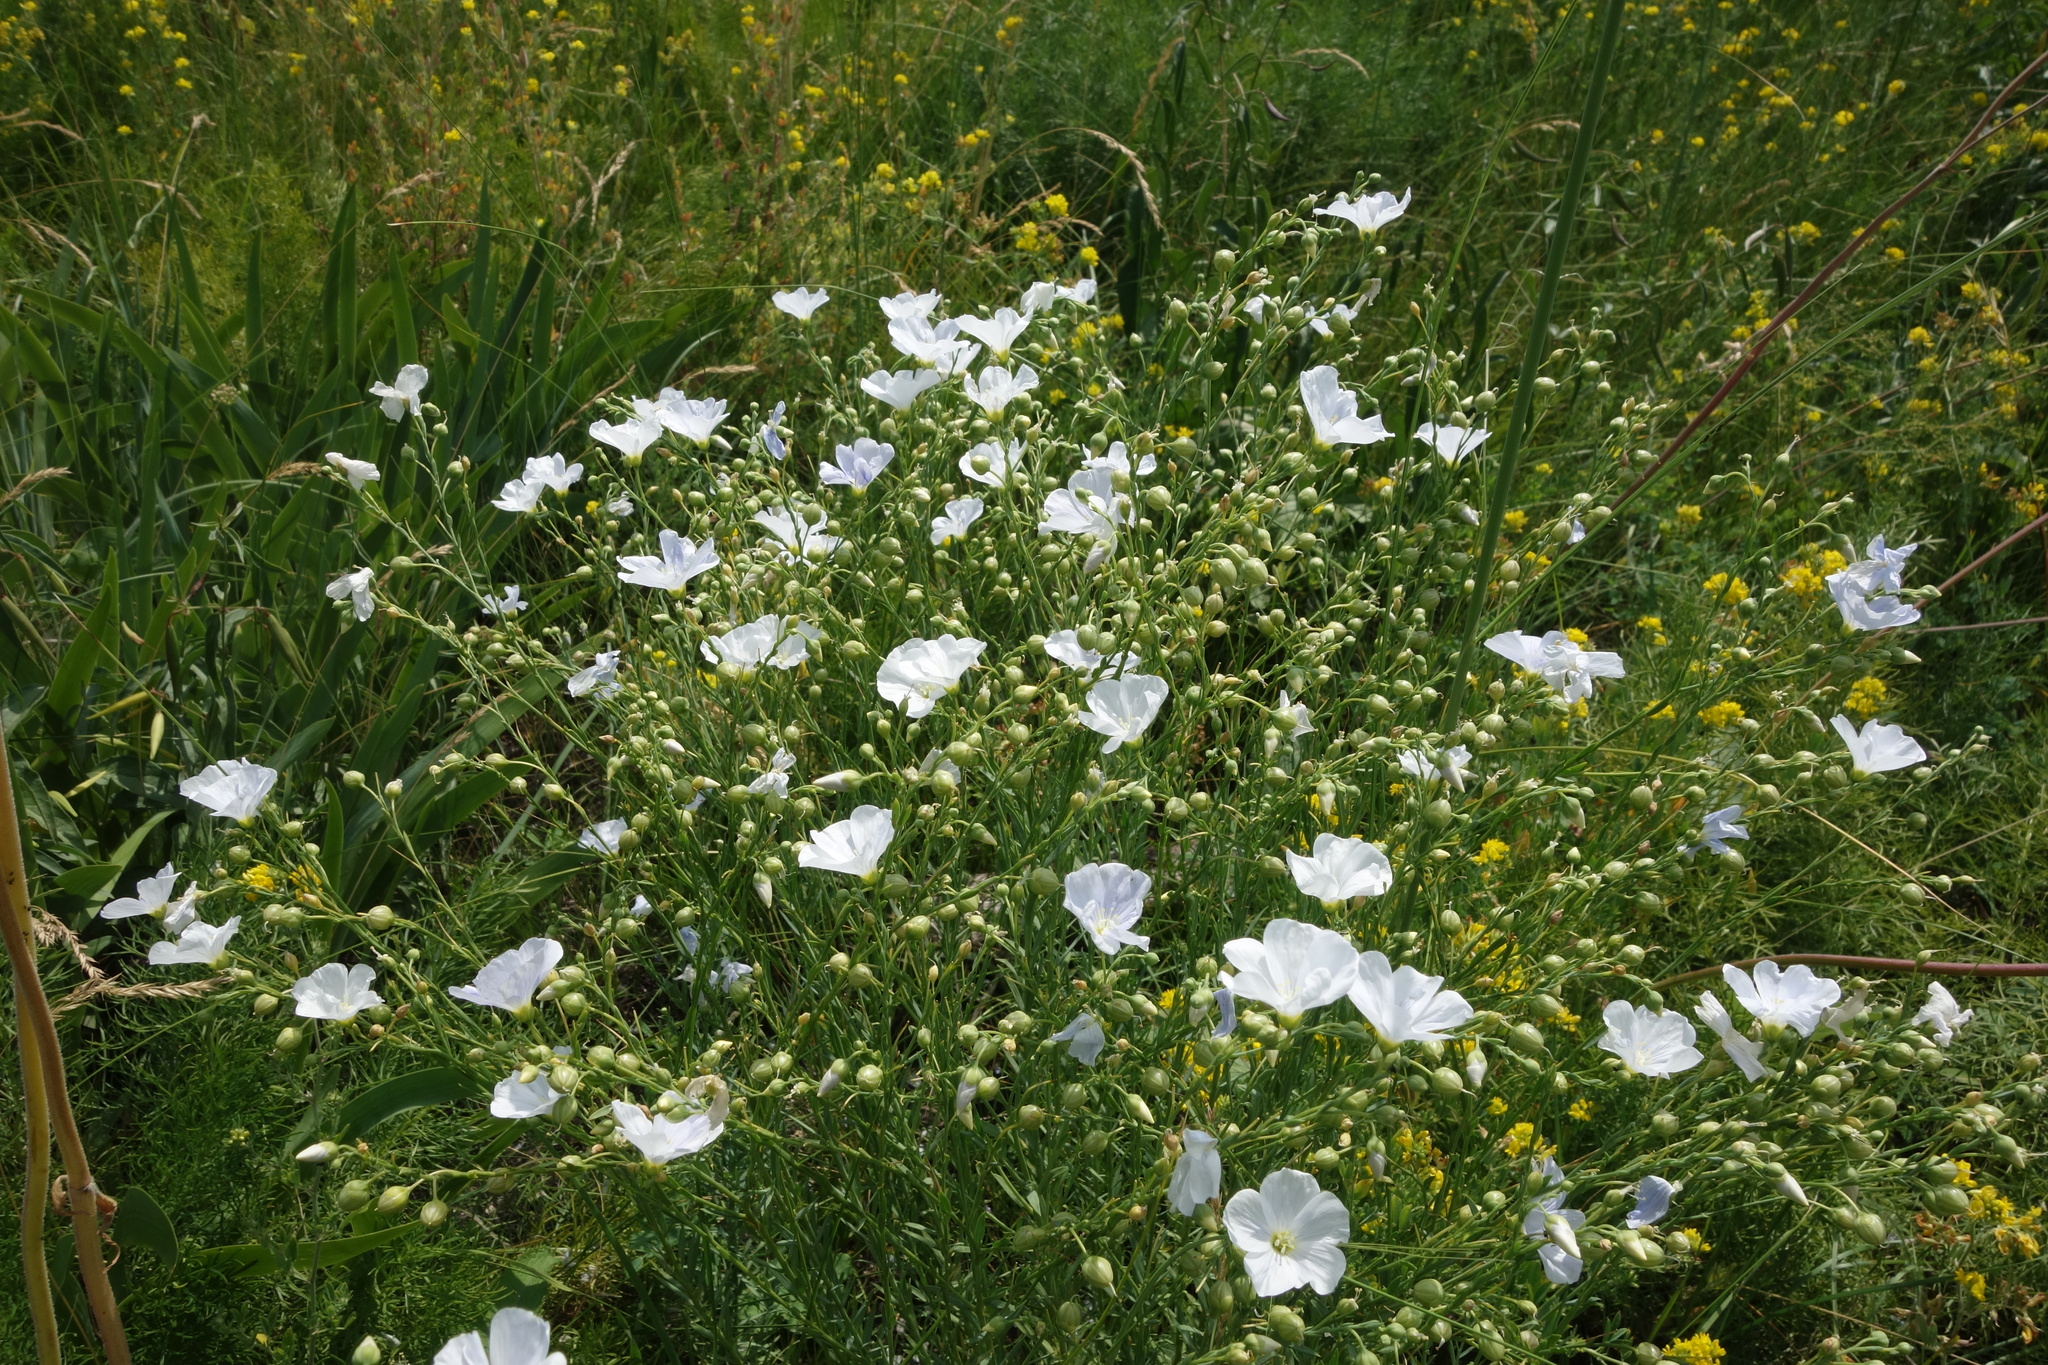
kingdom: Plantae
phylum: Tracheophyta
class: Magnoliopsida
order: Malpighiales
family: Linaceae
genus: Linum
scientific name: Linum perenne
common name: Blue flax
